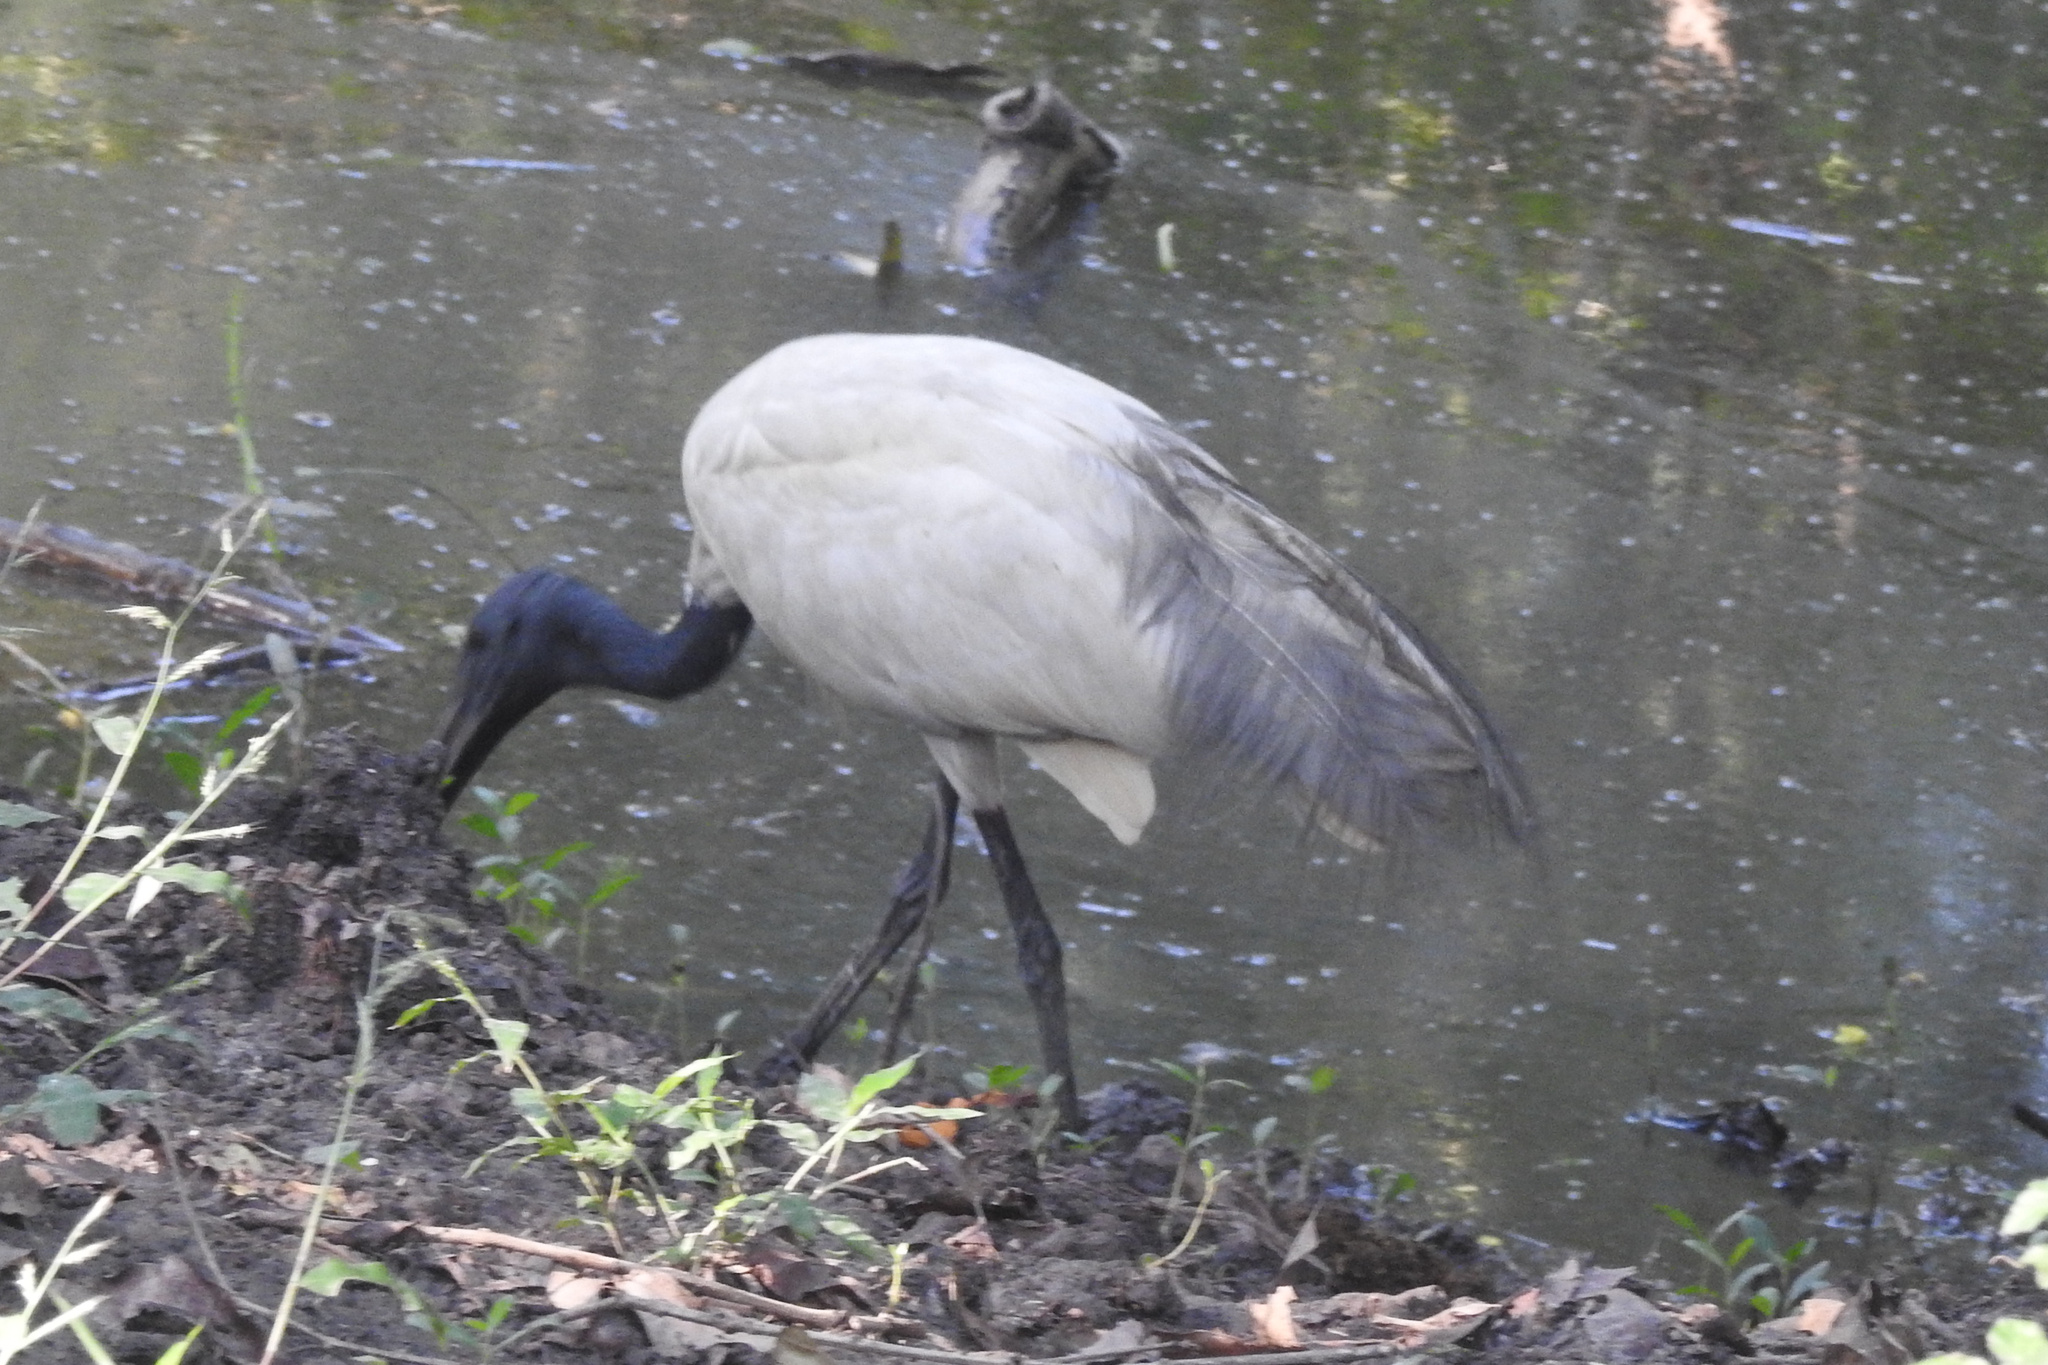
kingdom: Animalia
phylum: Chordata
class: Aves
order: Pelecaniformes
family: Threskiornithidae
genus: Threskiornis
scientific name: Threskiornis melanocephalus
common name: Black-headed ibis
